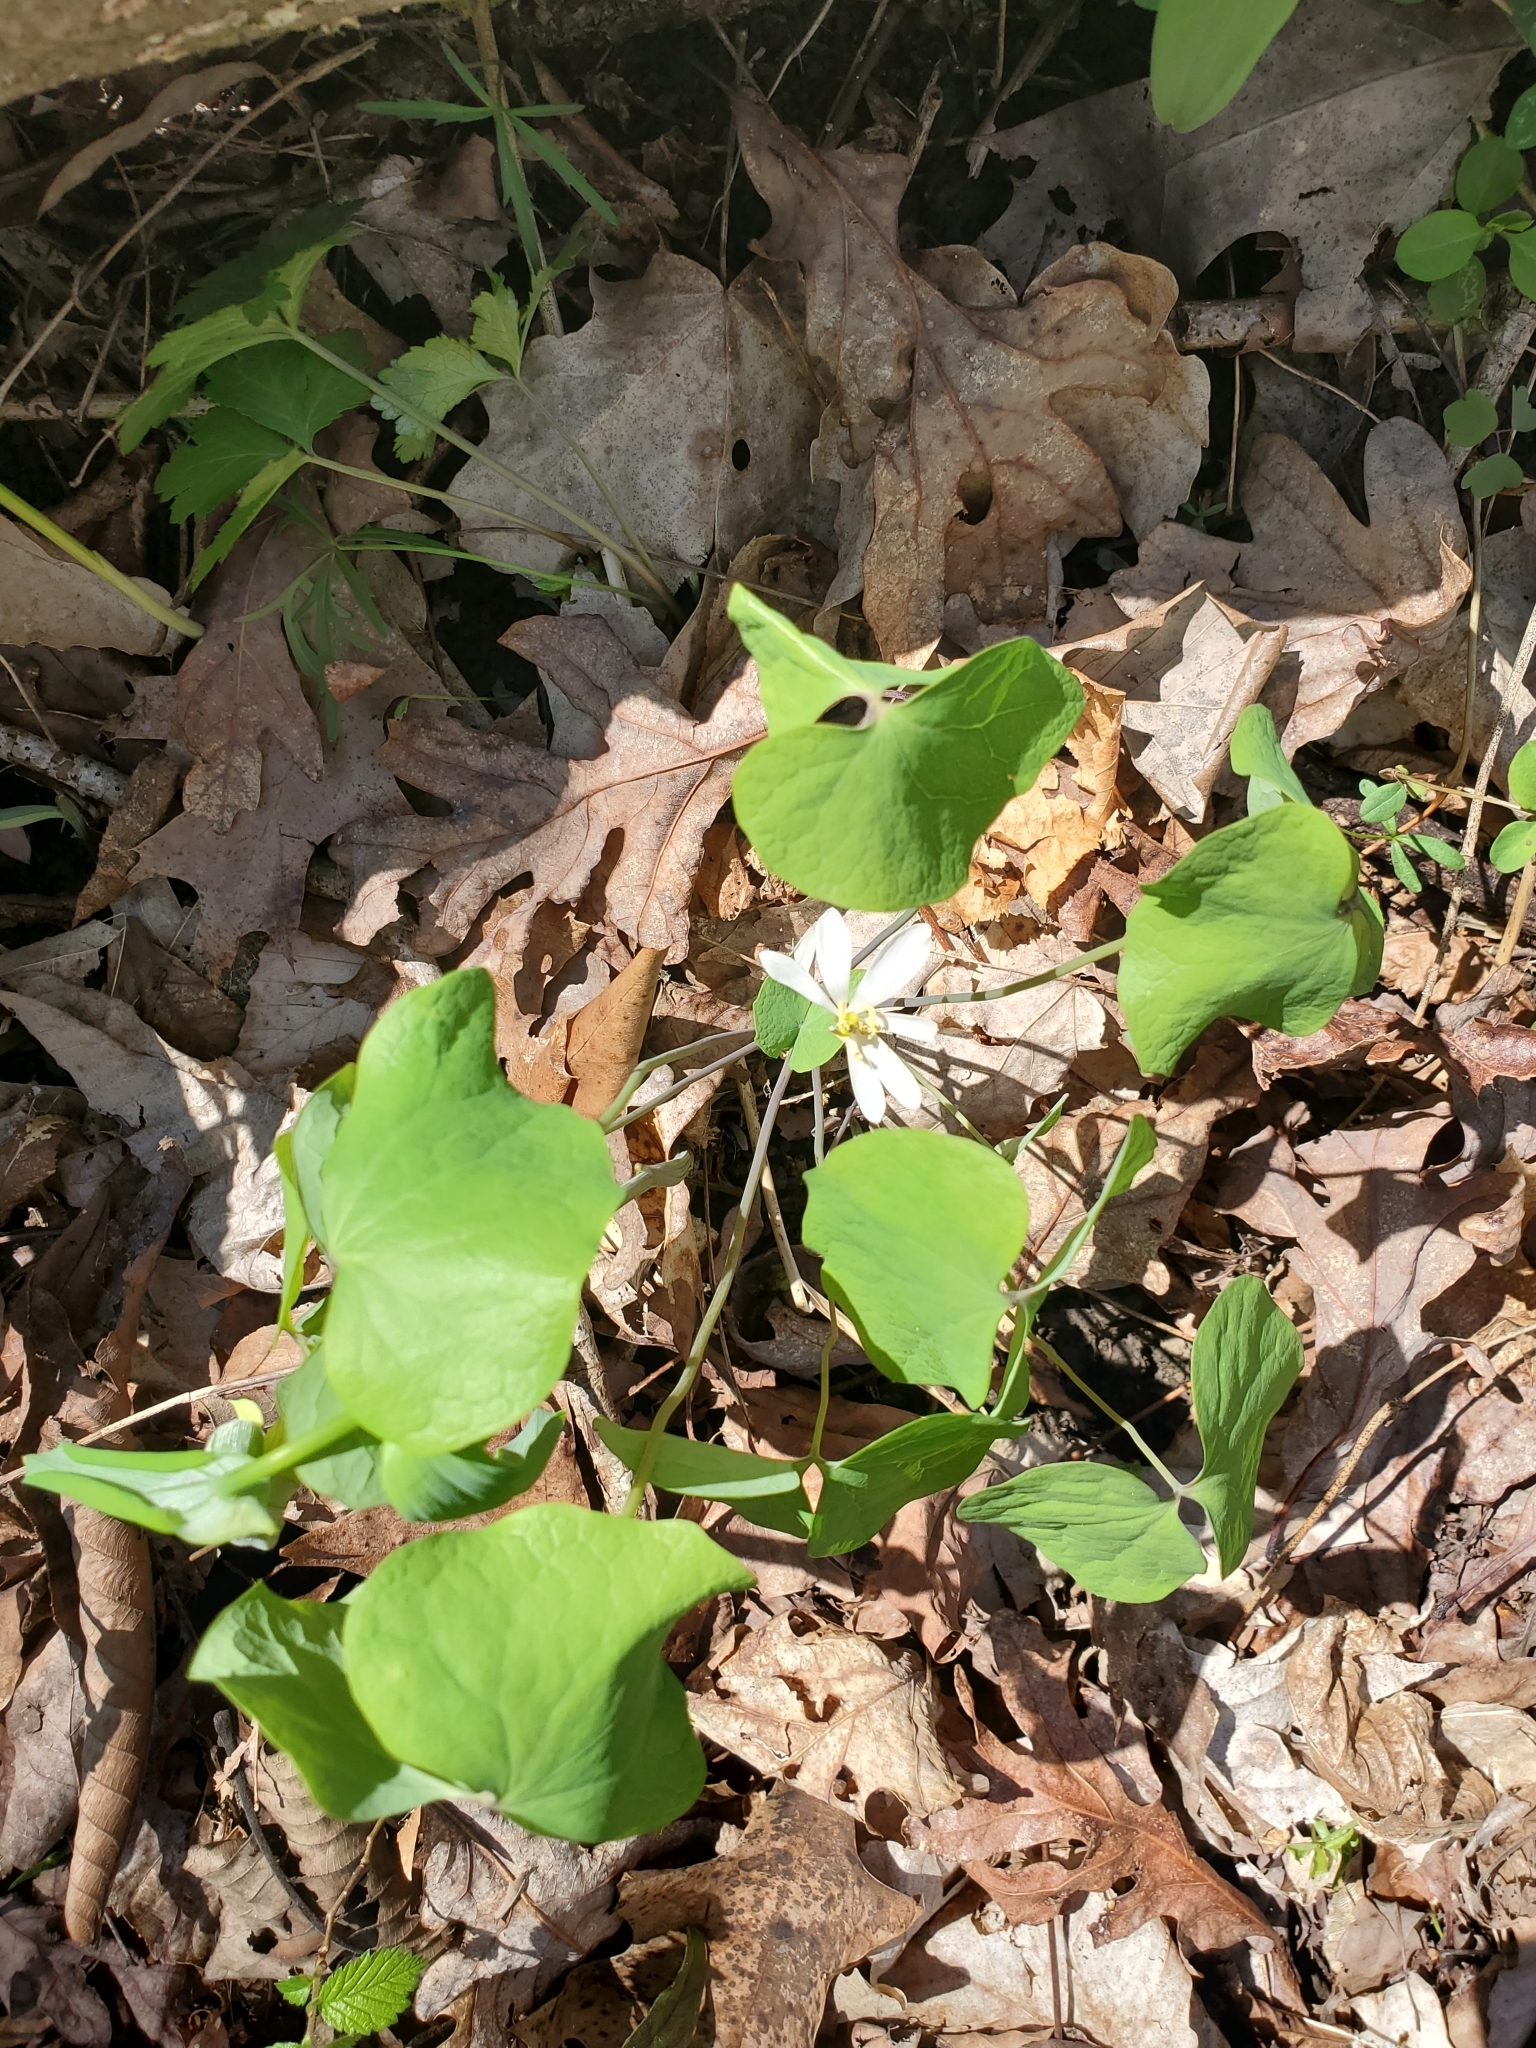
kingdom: Plantae
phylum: Tracheophyta
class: Magnoliopsida
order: Ranunculales
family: Berberidaceae
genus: Jeffersonia
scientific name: Jeffersonia diphylla
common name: Rheumatism-root
